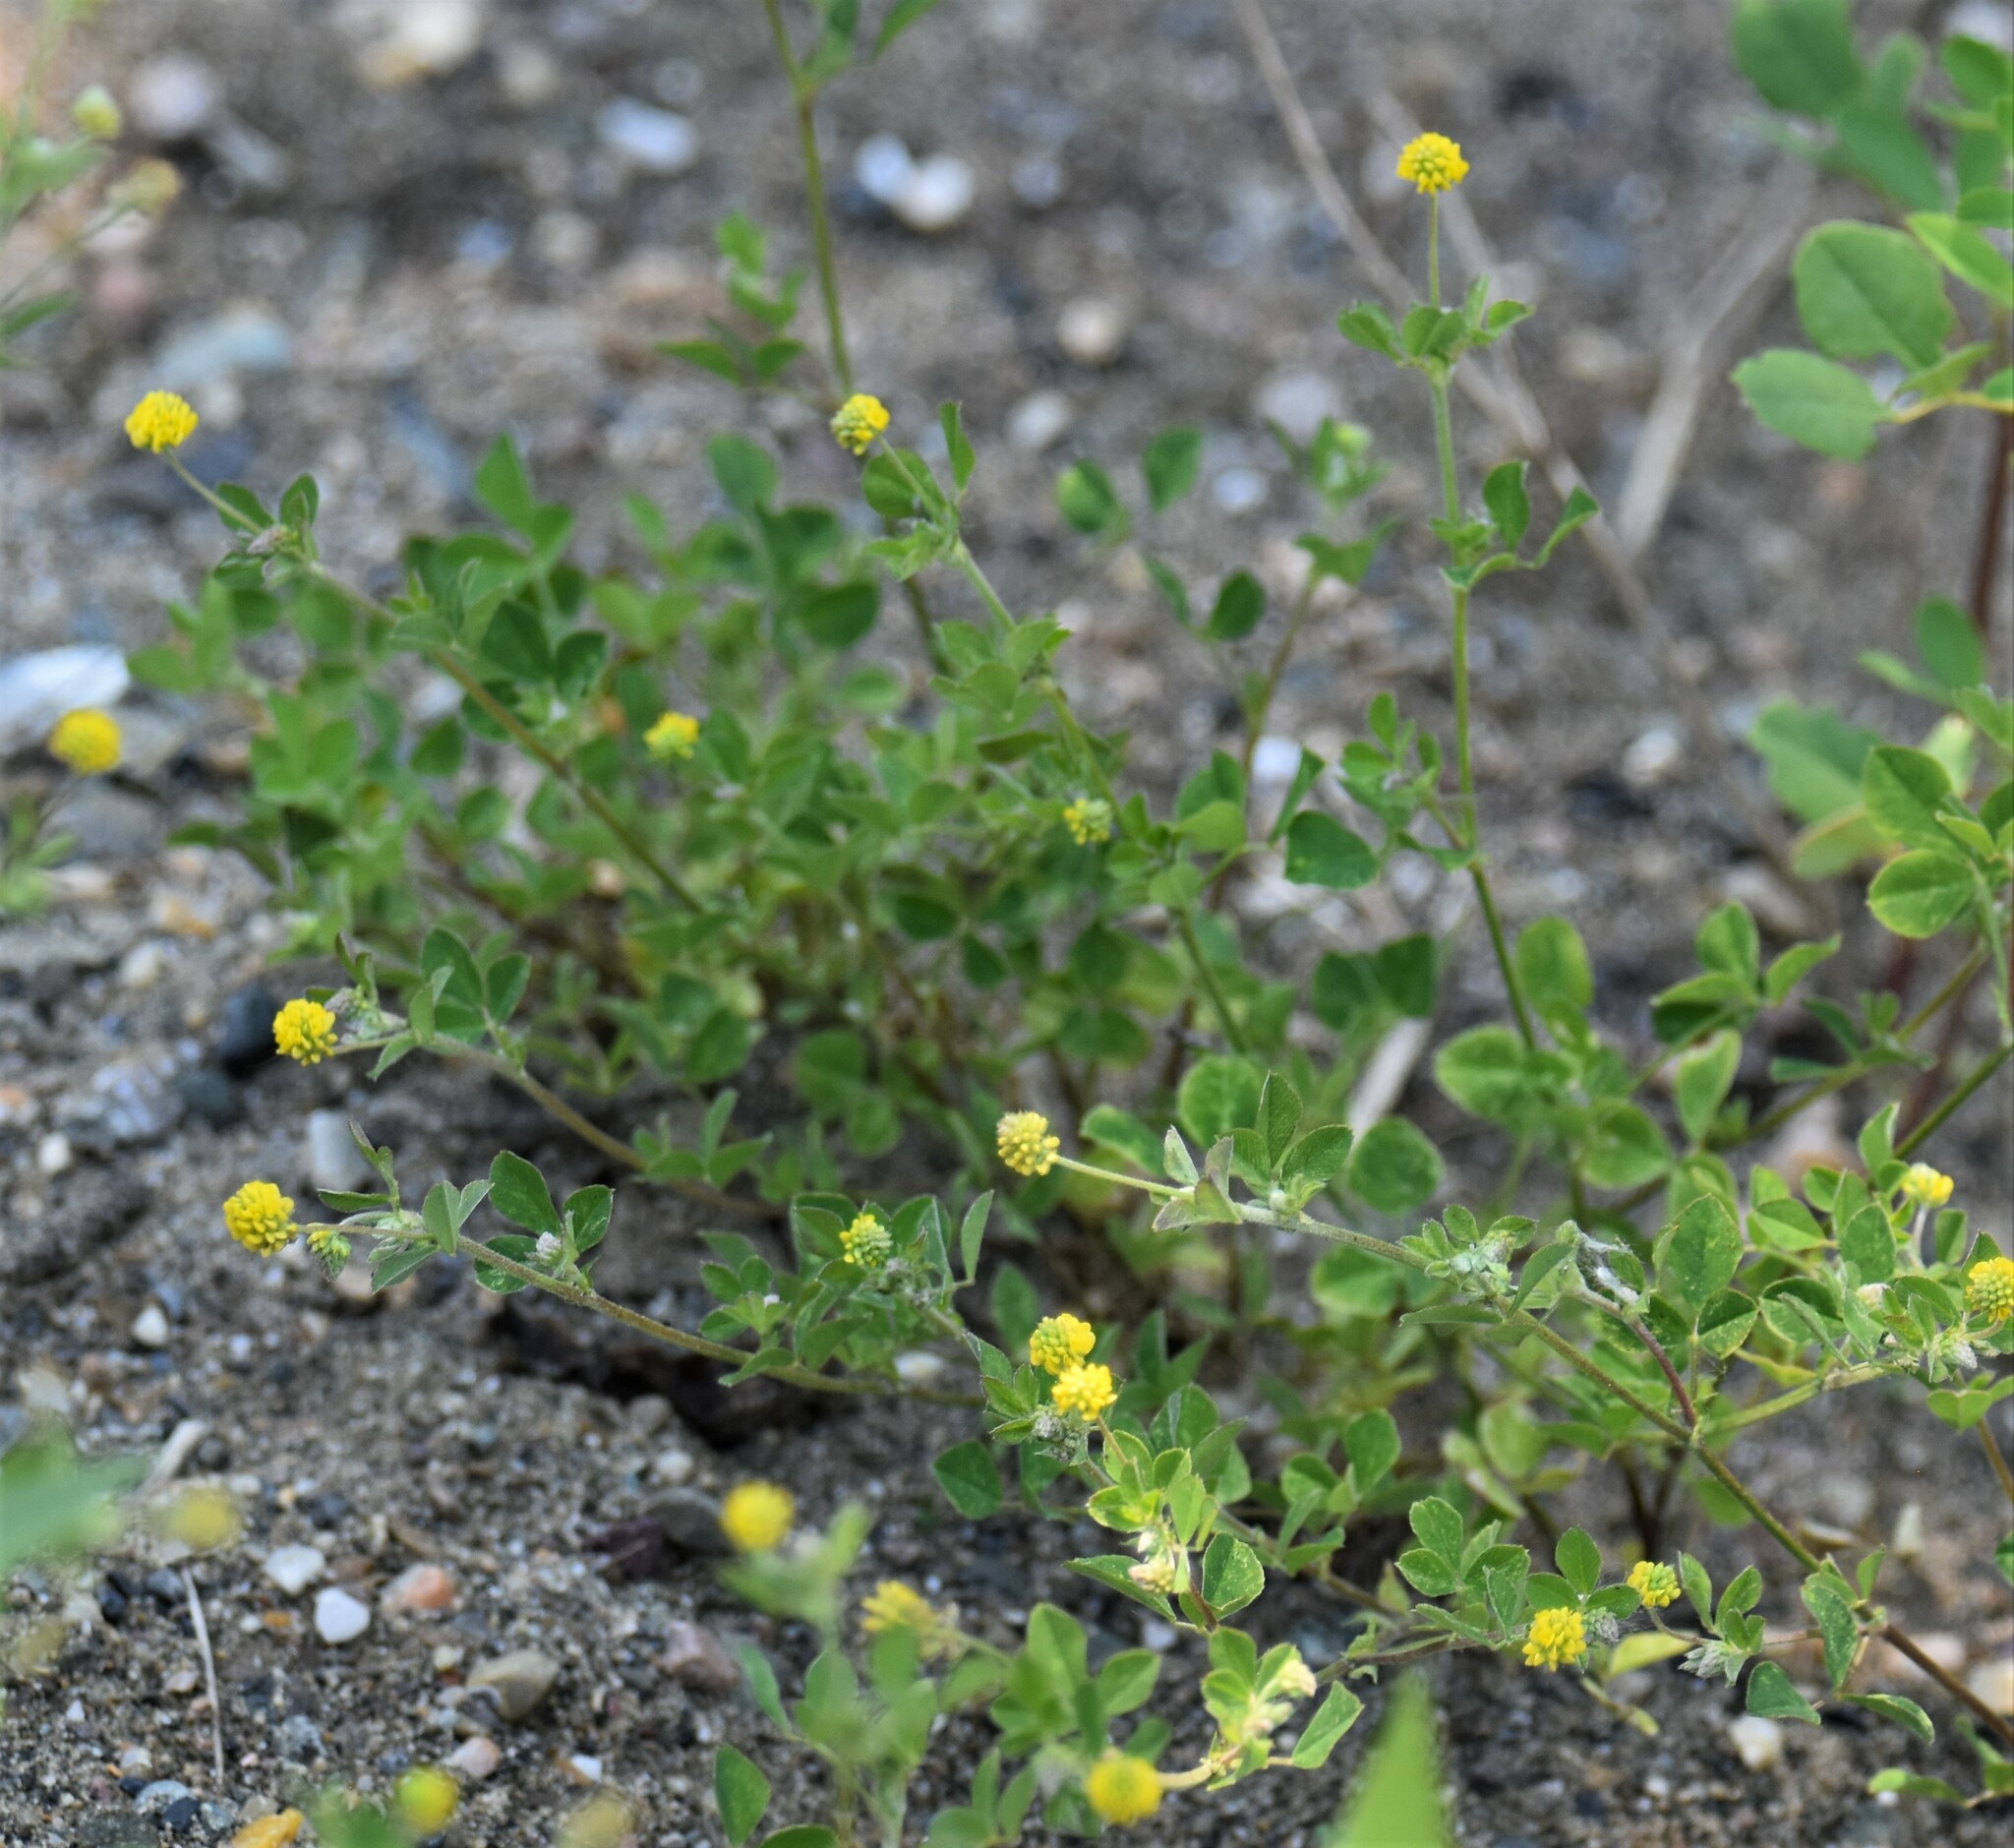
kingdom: Plantae
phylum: Tracheophyta
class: Magnoliopsida
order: Fabales
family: Fabaceae
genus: Medicago
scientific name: Medicago lupulina
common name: Black medick
